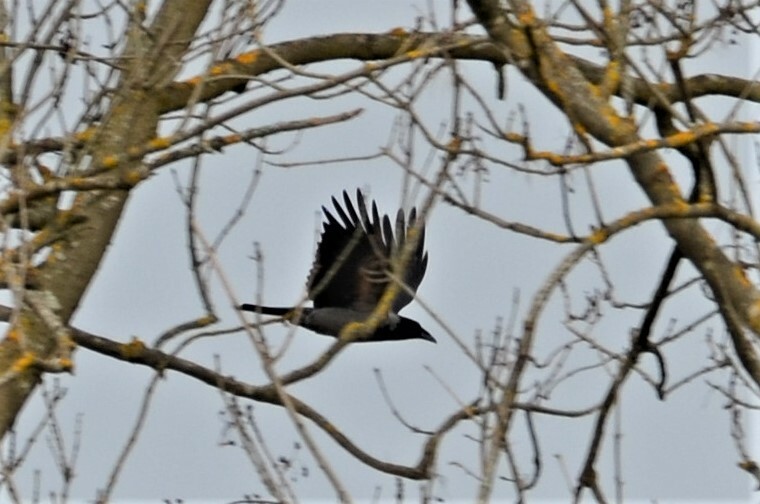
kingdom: Animalia
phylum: Chordata
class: Aves
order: Passeriformes
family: Corvidae
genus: Corvus
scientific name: Corvus cornix
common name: Hooded crow
